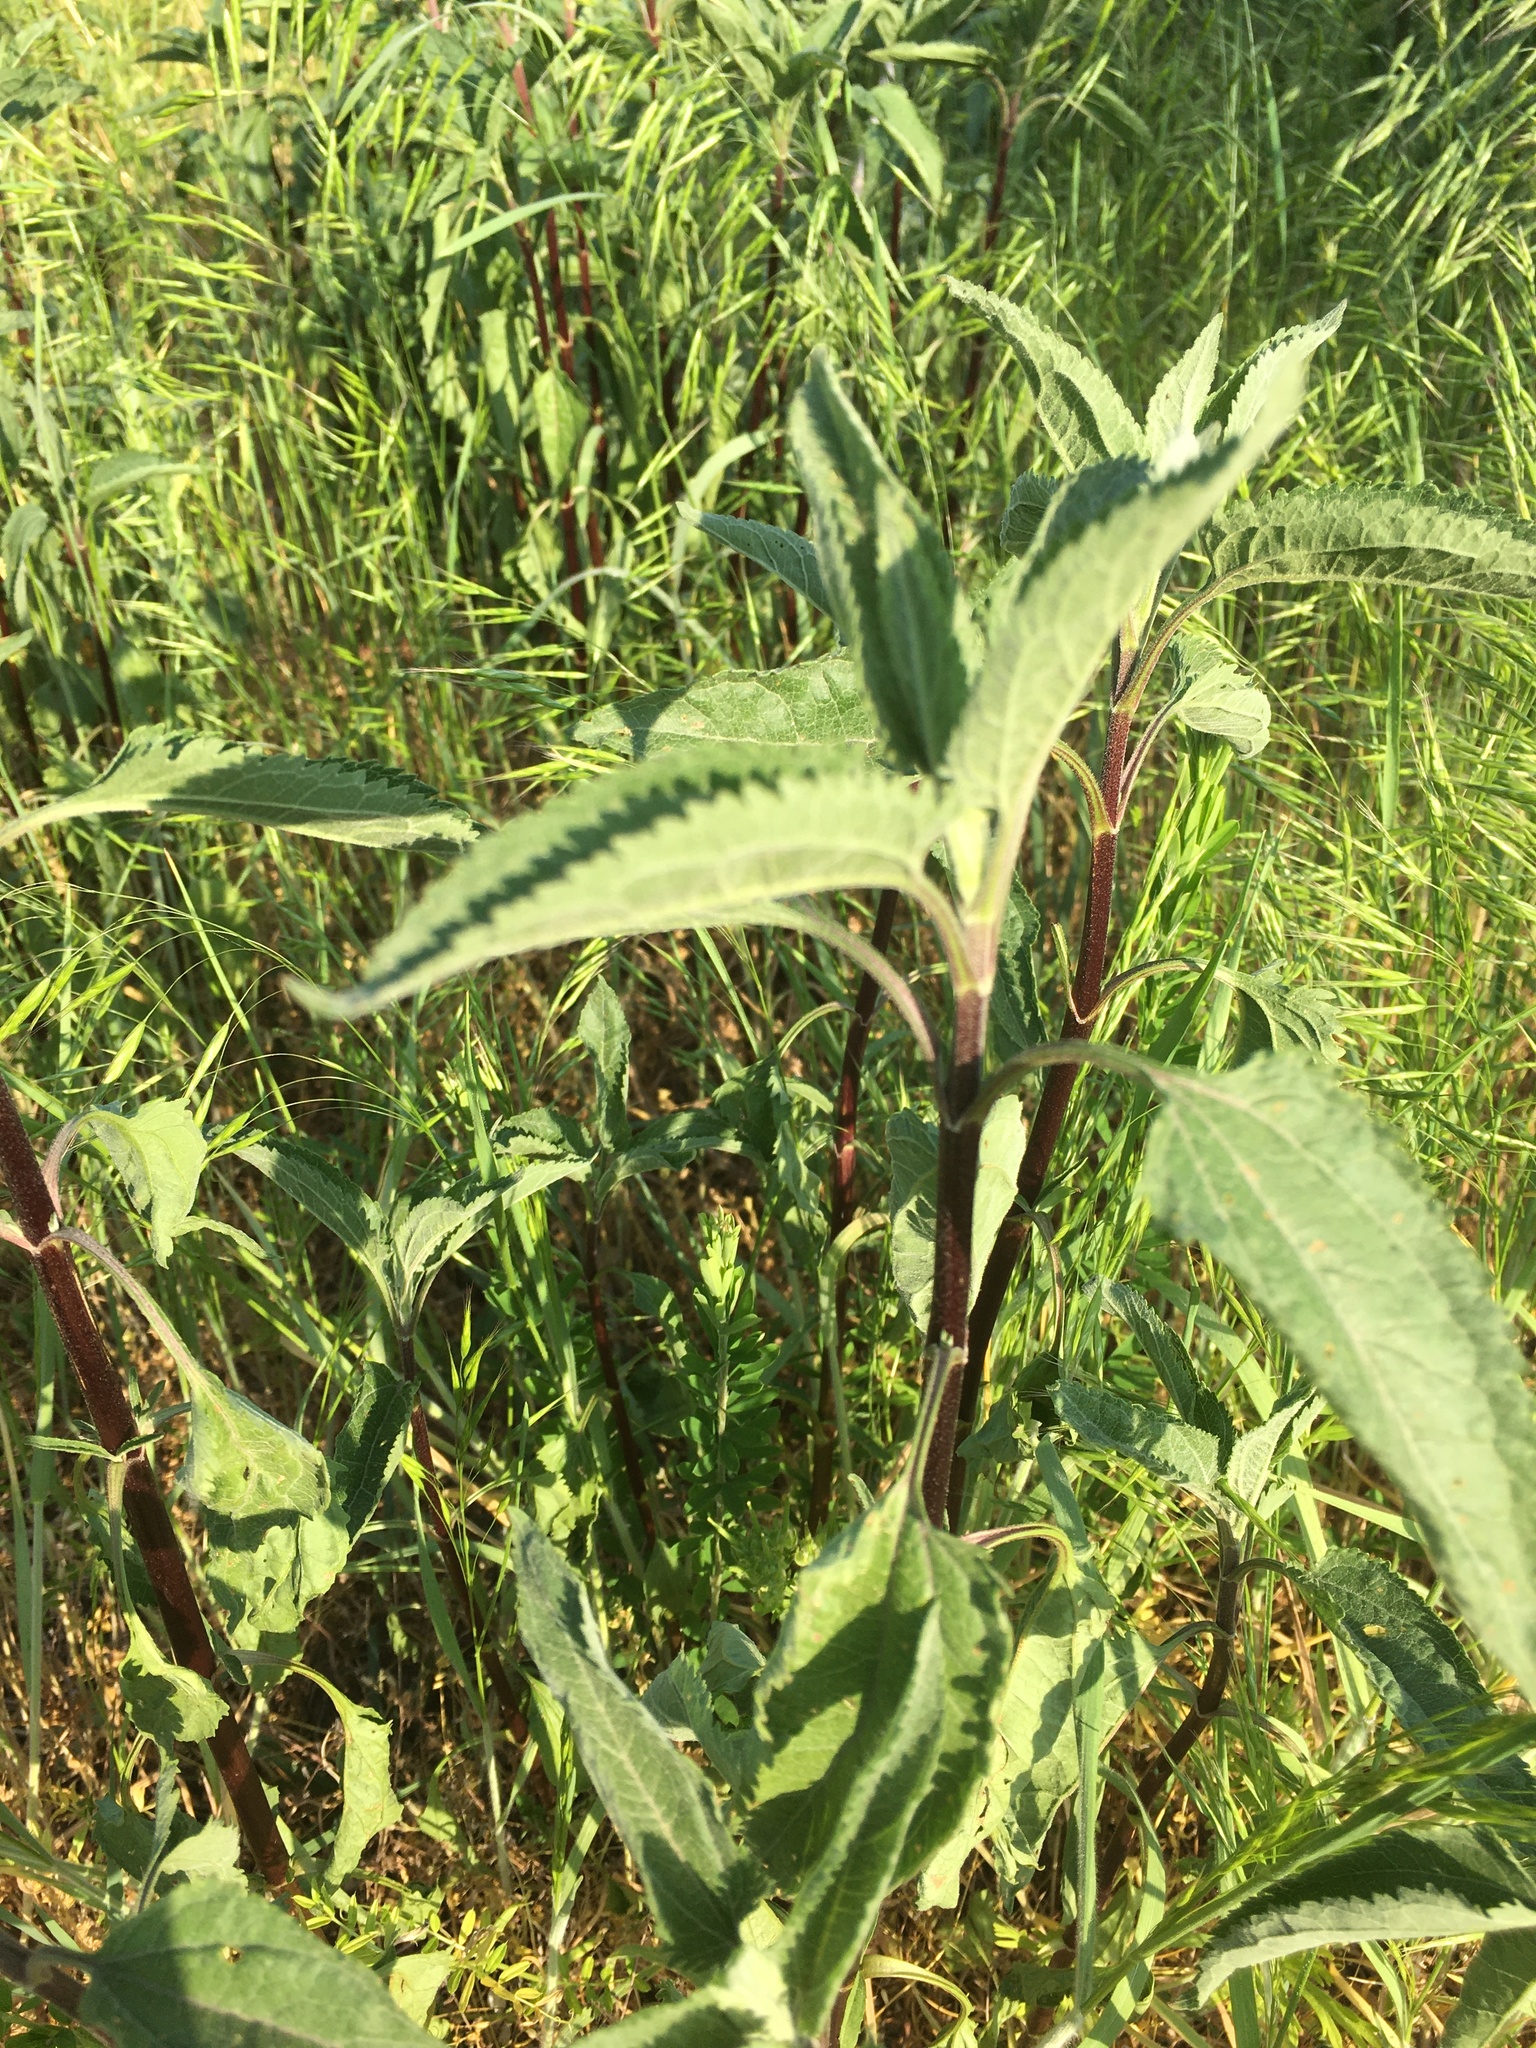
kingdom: Plantae
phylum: Tracheophyta
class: Magnoliopsida
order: Asterales
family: Asteraceae
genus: Eupatorium
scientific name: Eupatorium serotinum
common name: Late boneset
